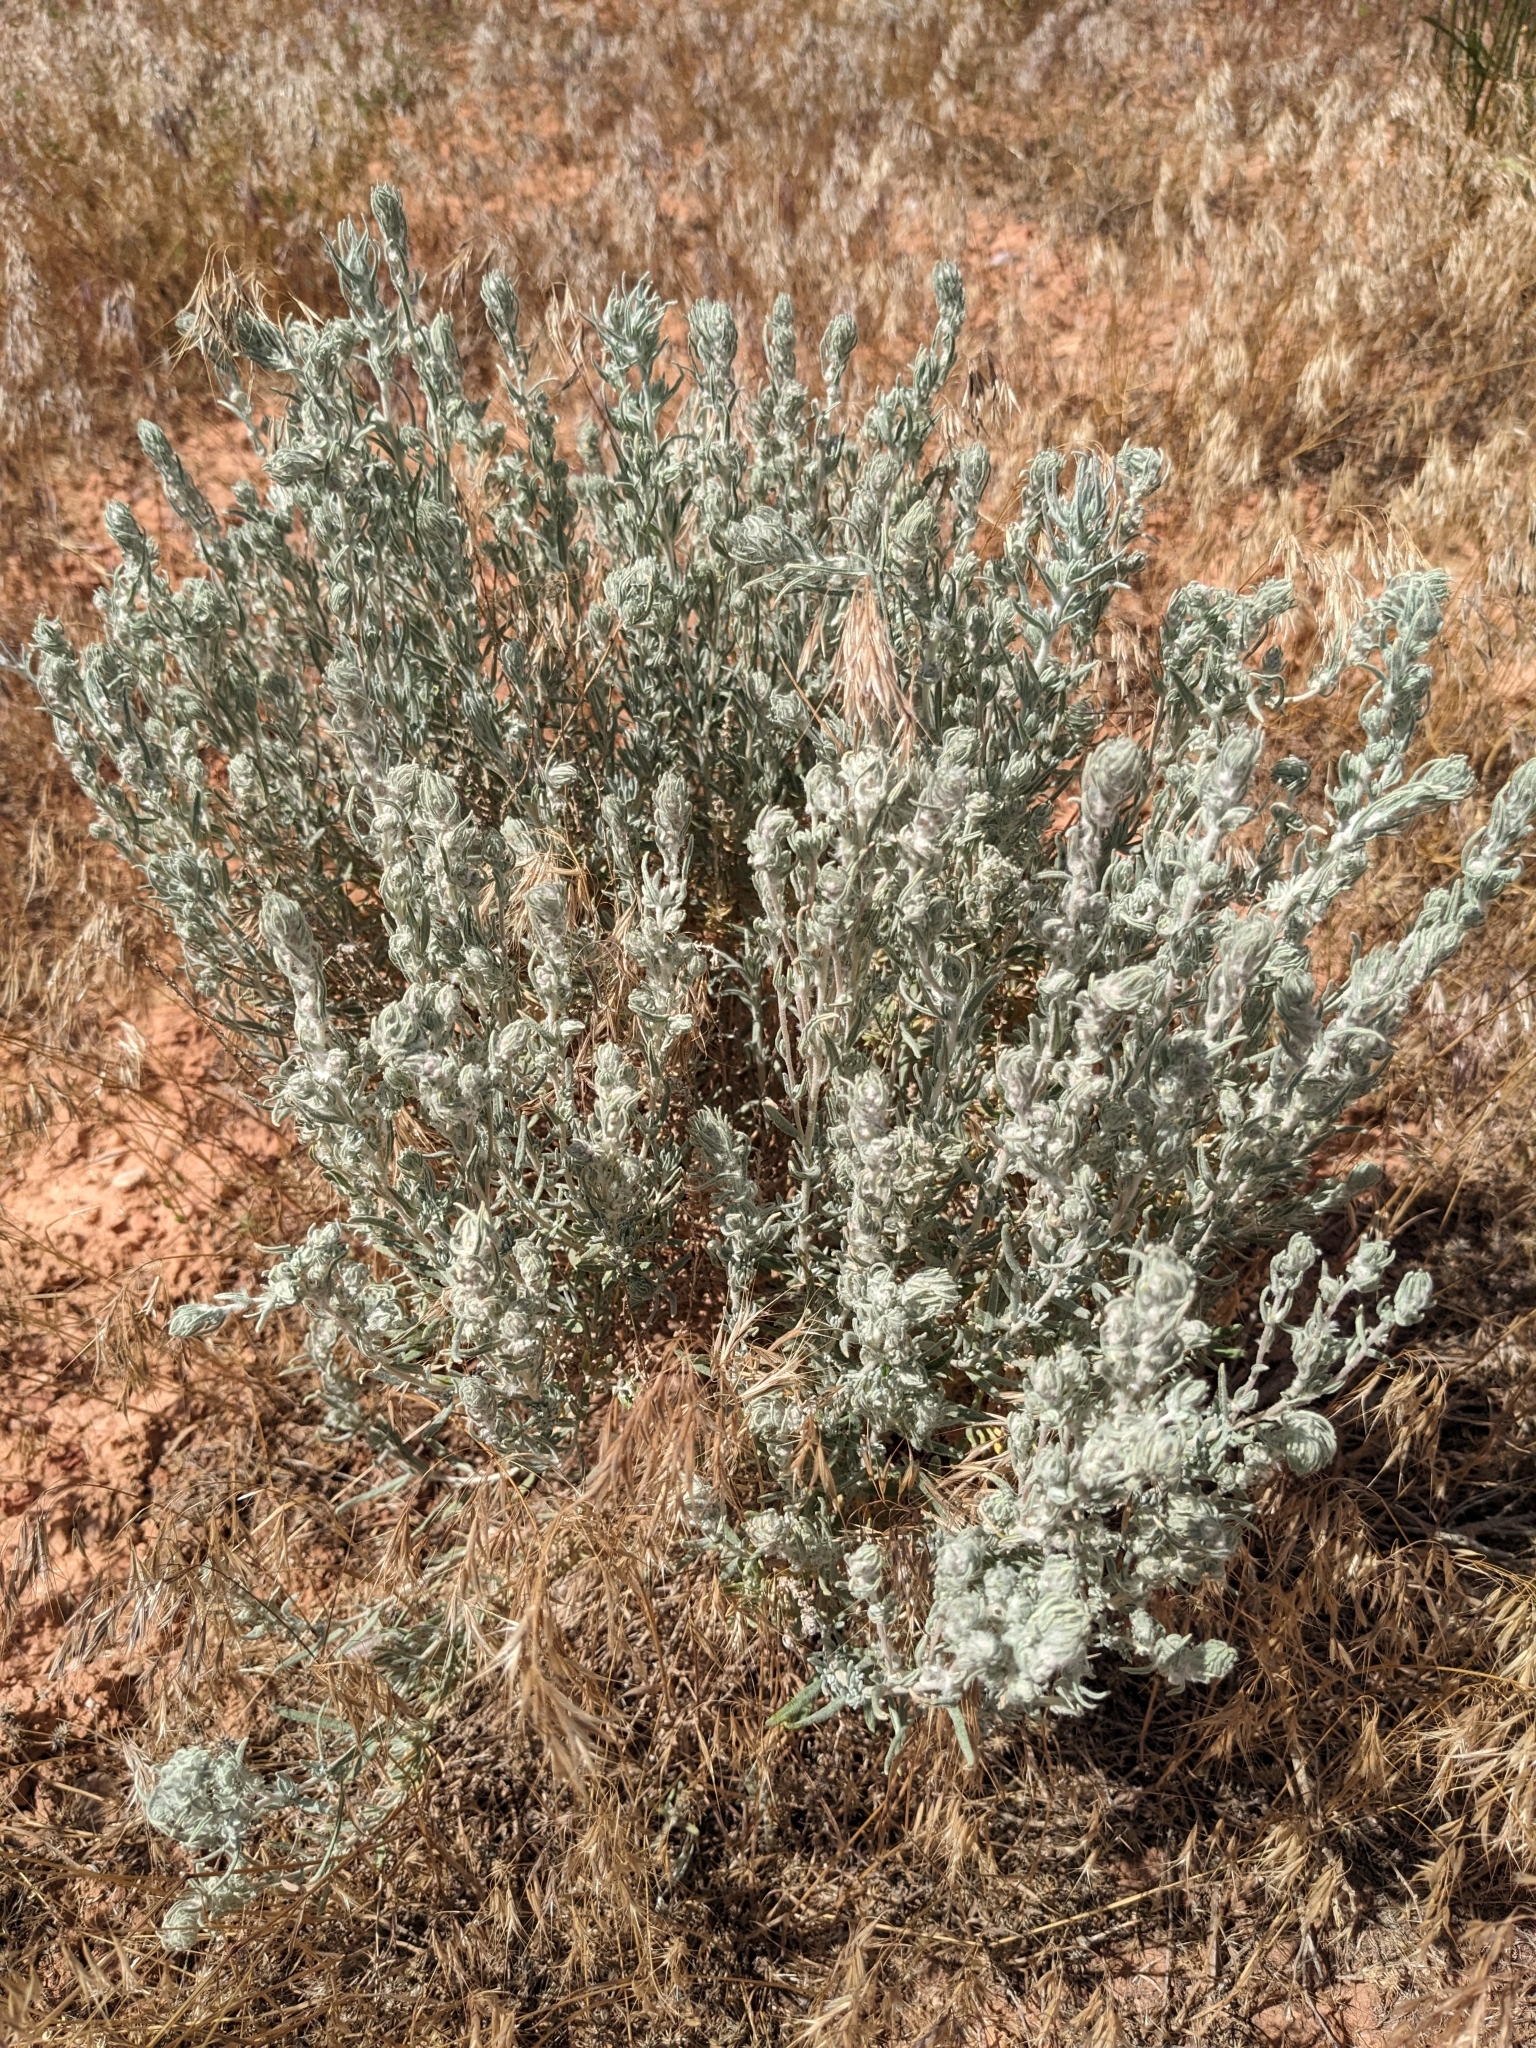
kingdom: Plantae
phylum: Tracheophyta
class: Magnoliopsida
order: Caryophyllales
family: Amaranthaceae
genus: Krascheninnikovia
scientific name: Krascheninnikovia lanata
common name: Winterfat
